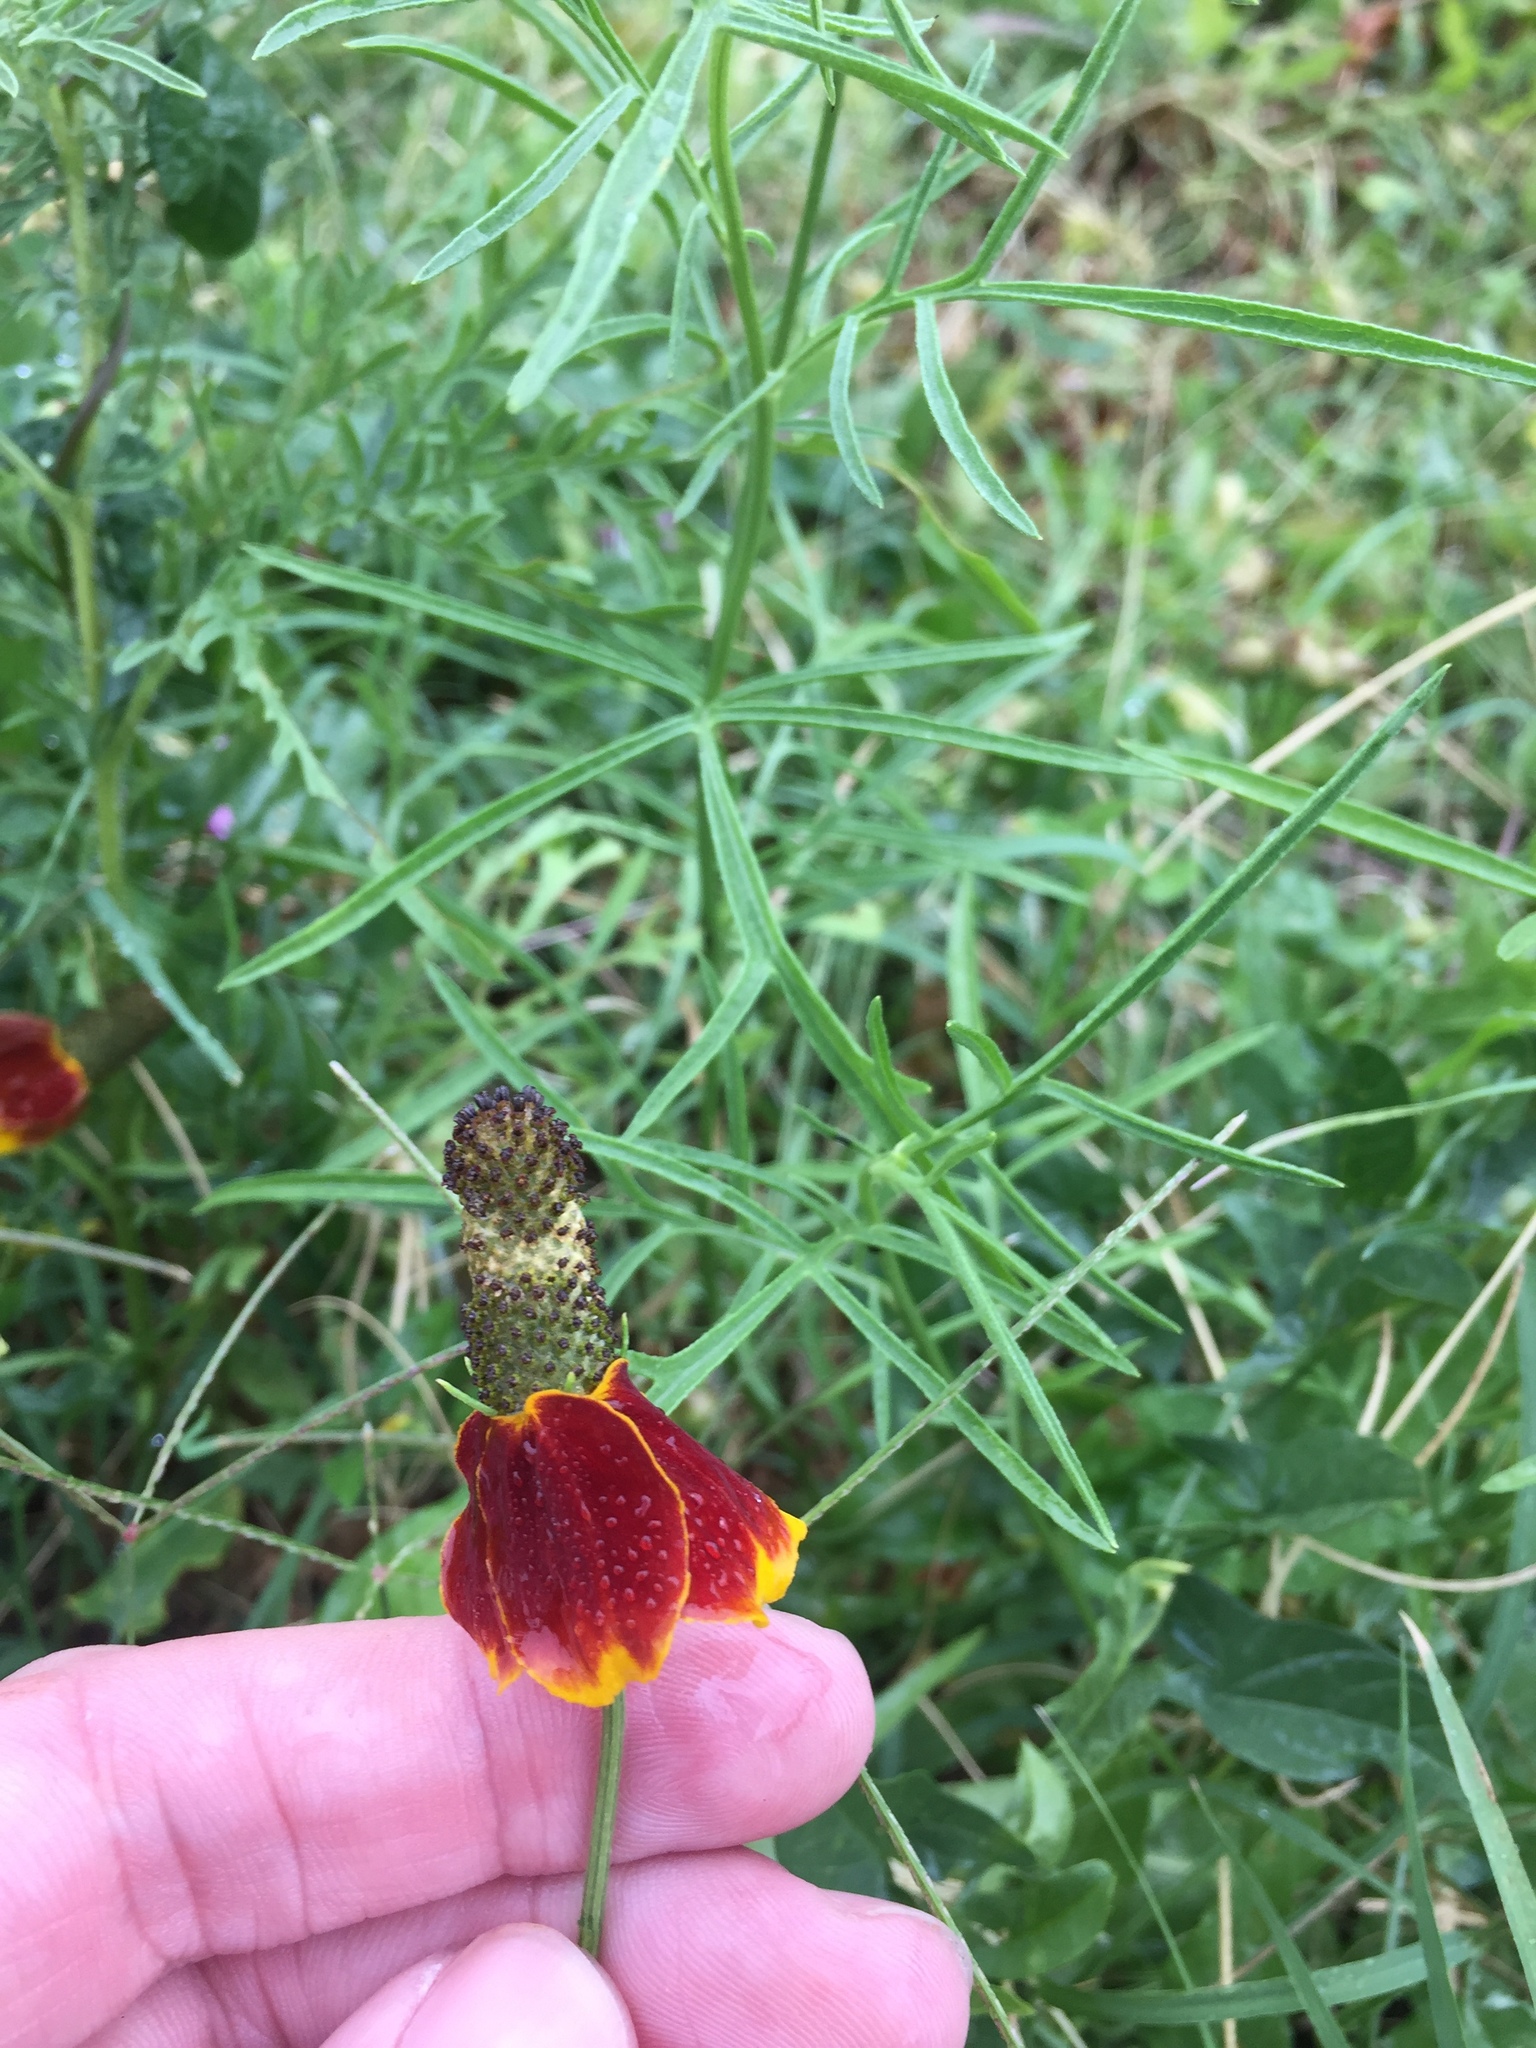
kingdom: Plantae
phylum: Tracheophyta
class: Magnoliopsida
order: Asterales
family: Asteraceae
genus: Ratibida
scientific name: Ratibida columnifera
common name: Prairie coneflower
